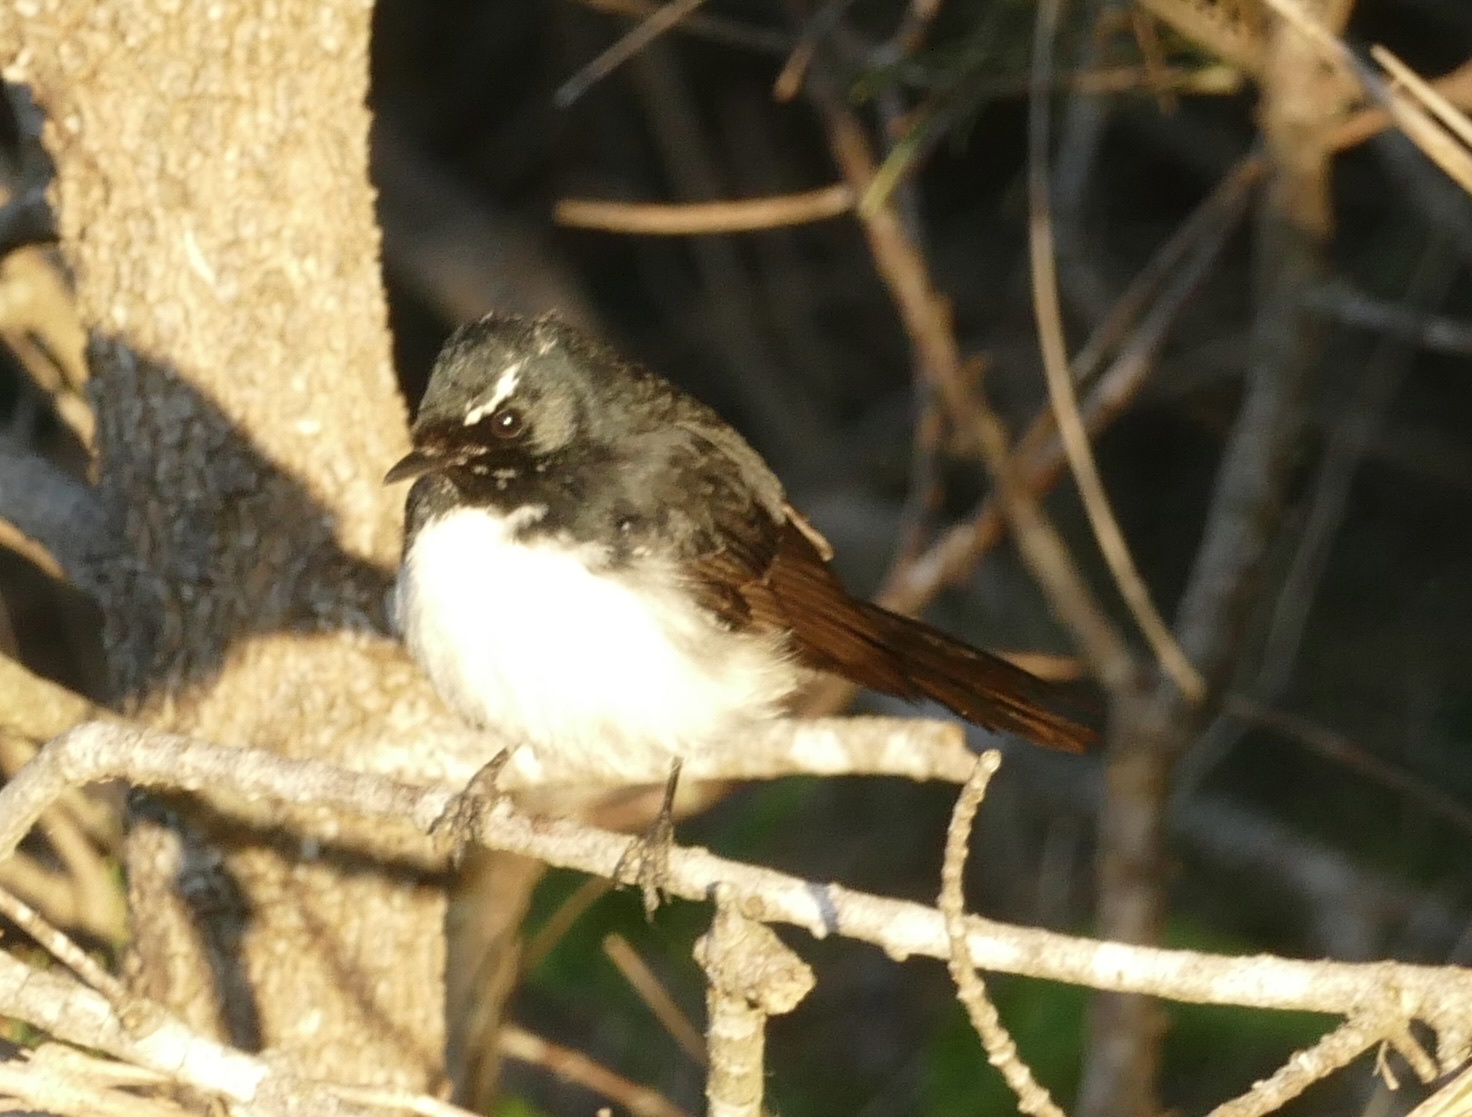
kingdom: Animalia
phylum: Chordata
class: Aves
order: Passeriformes
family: Rhipiduridae
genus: Rhipidura
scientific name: Rhipidura leucophrys
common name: Willie wagtail
